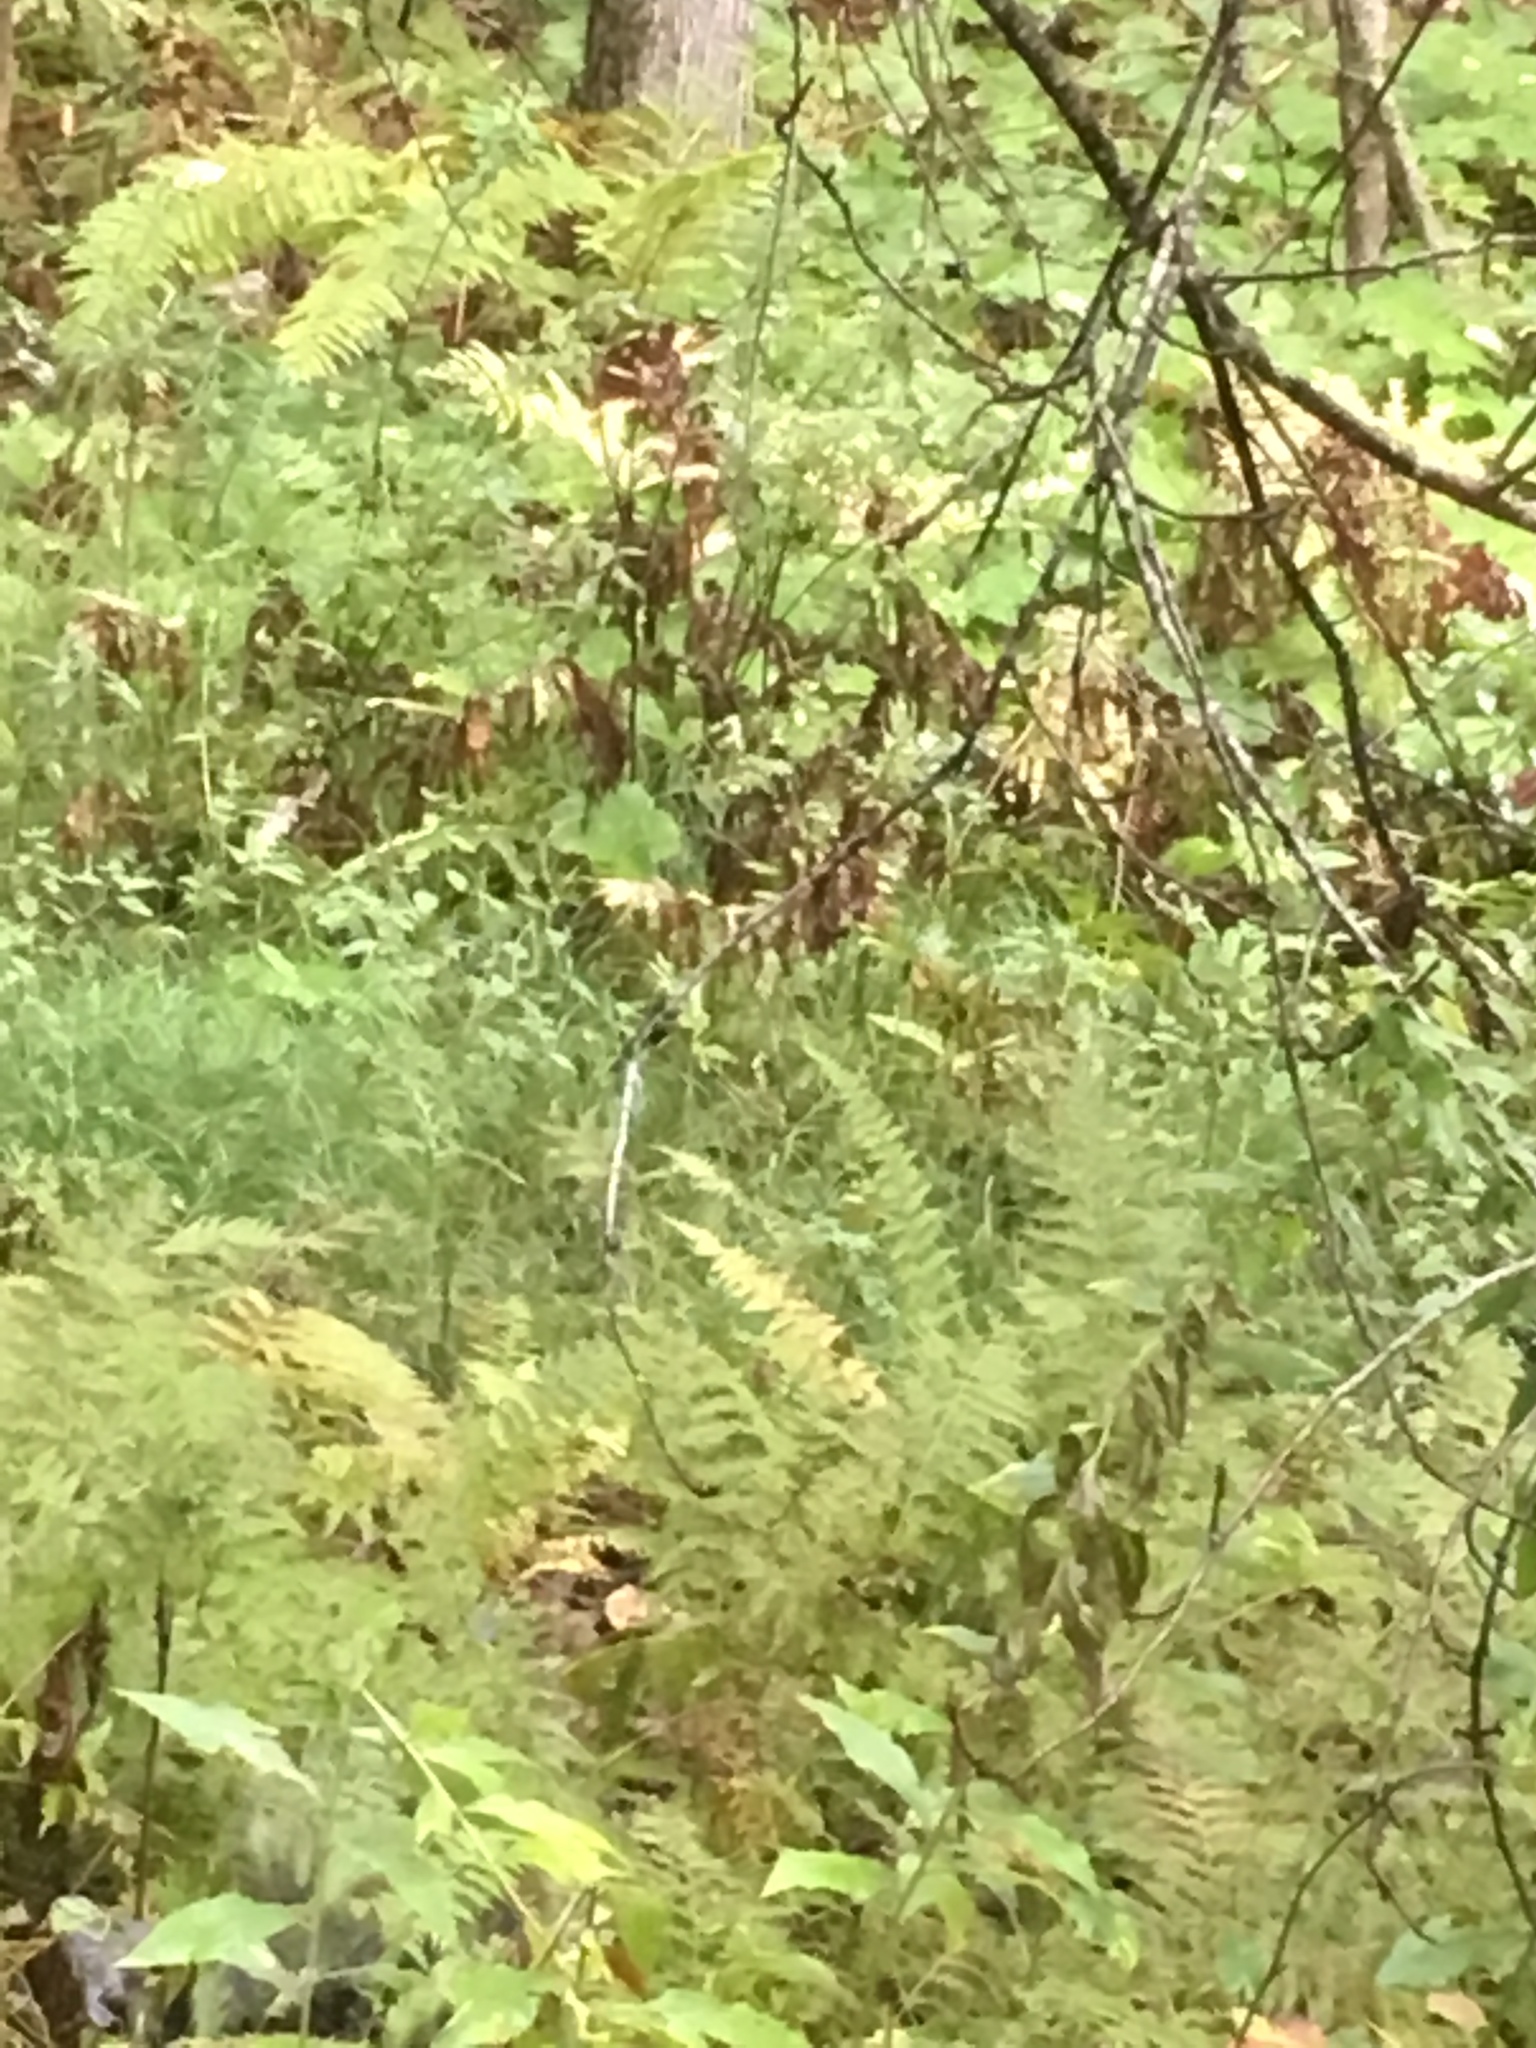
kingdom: Plantae
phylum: Tracheophyta
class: Polypodiopsida
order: Polypodiales
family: Onocleaceae
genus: Onoclea
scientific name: Onoclea sensibilis
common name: Sensitive fern
